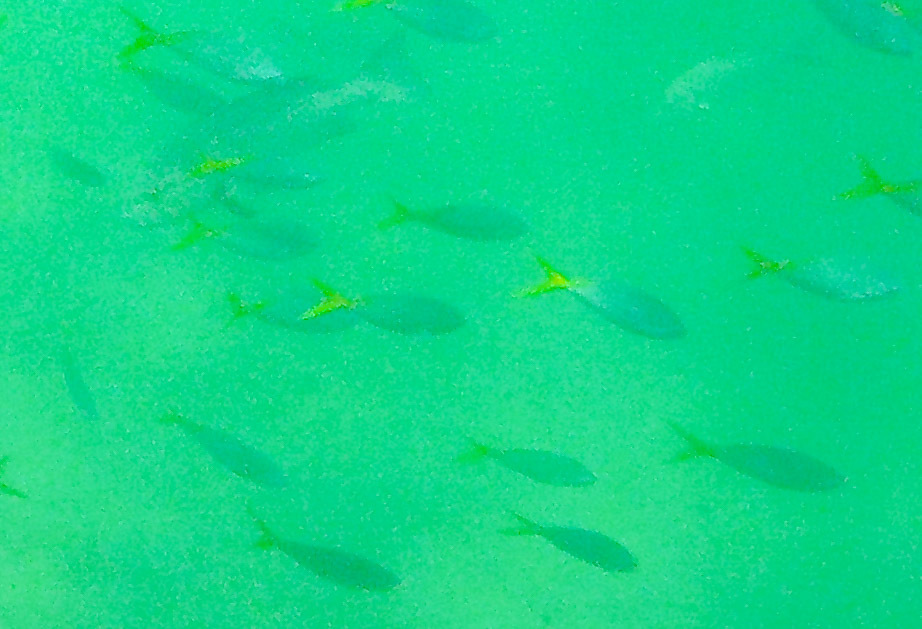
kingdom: Animalia
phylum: Chordata
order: Perciformes
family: Caesionidae
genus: Caesio
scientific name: Caesio cuning
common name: Red-bellied fusilier
